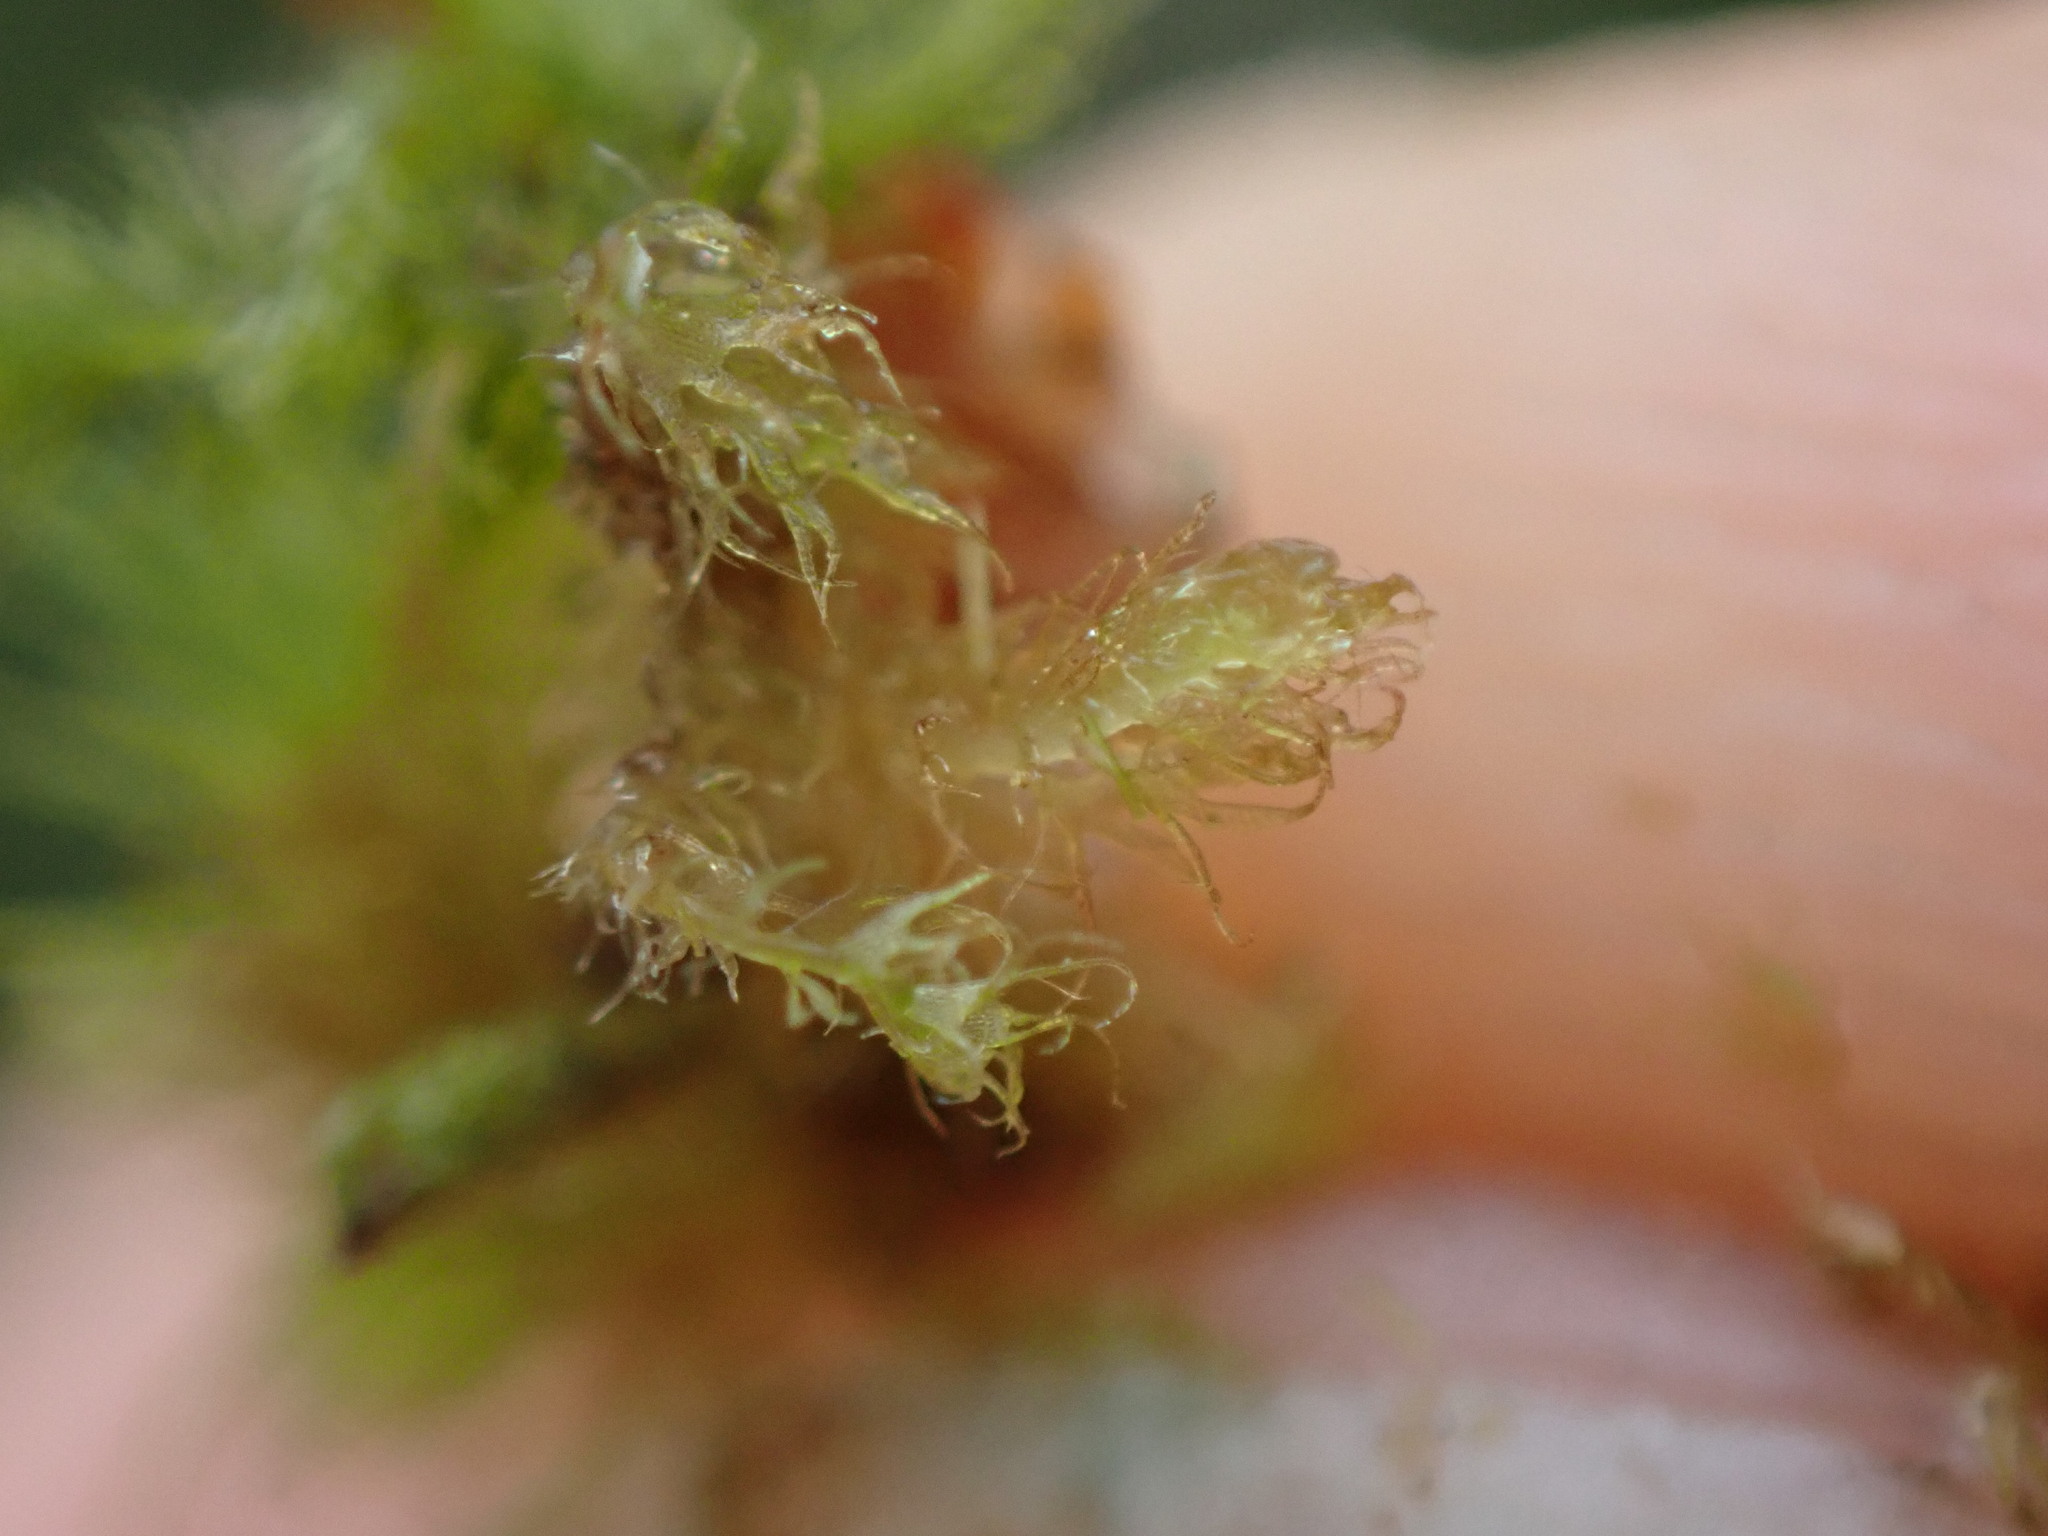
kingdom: Plantae
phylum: Marchantiophyta
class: Jungermanniopsida
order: Ptilidiales
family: Ptilidiaceae
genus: Ptilidium
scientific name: Ptilidium californicum
